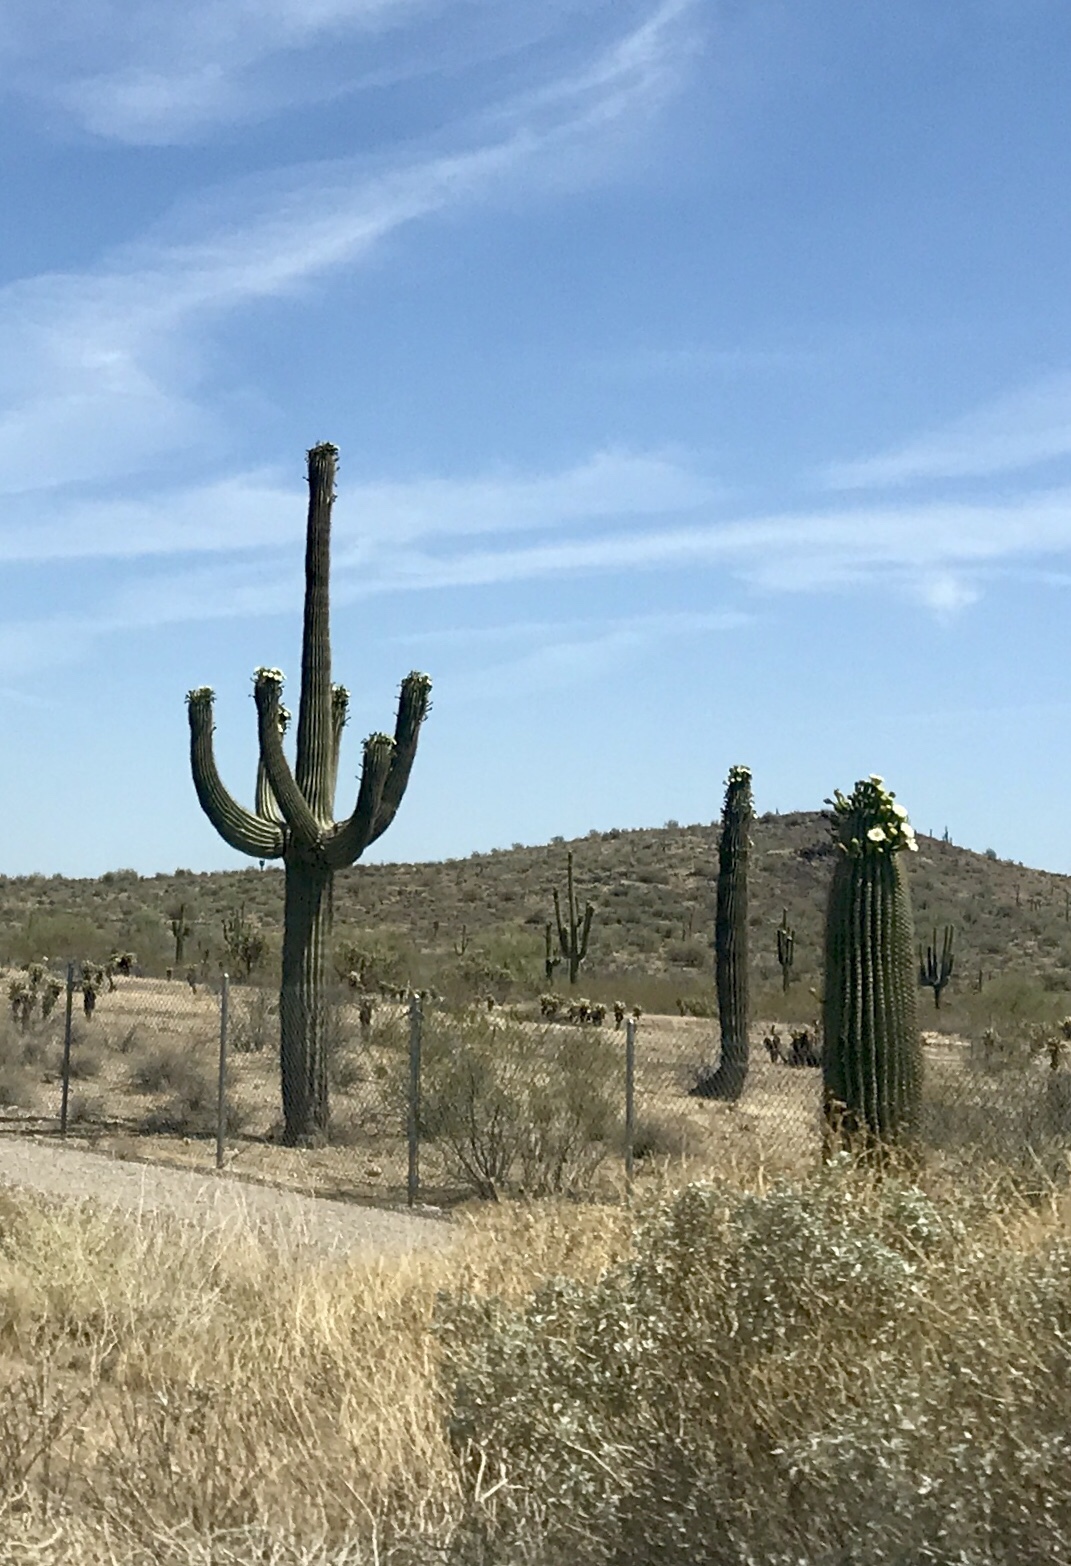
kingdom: Plantae
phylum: Tracheophyta
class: Magnoliopsida
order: Caryophyllales
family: Cactaceae
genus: Carnegiea
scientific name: Carnegiea gigantea
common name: Saguaro
